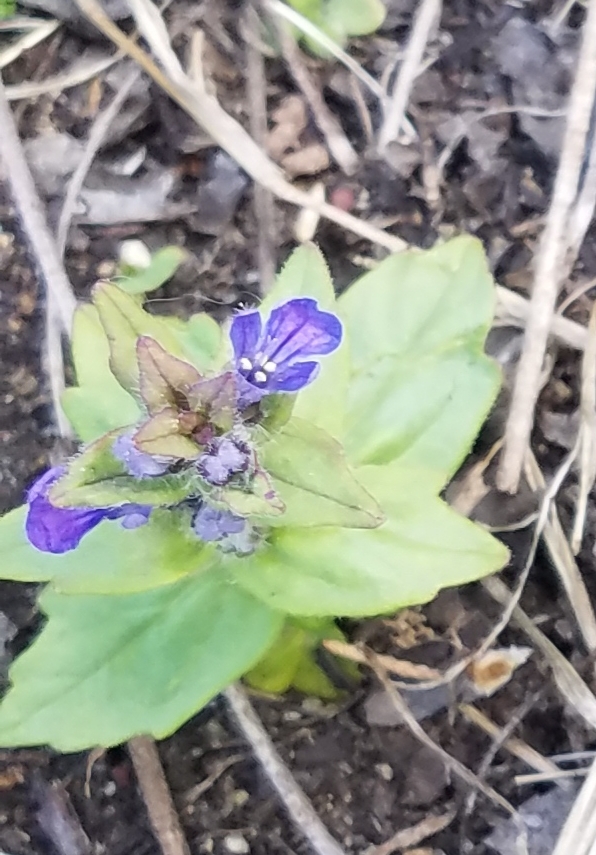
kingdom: Plantae
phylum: Tracheophyta
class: Magnoliopsida
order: Lamiales
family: Lamiaceae
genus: Ajuga
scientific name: Ajuga genevensis
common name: Blue bugle
